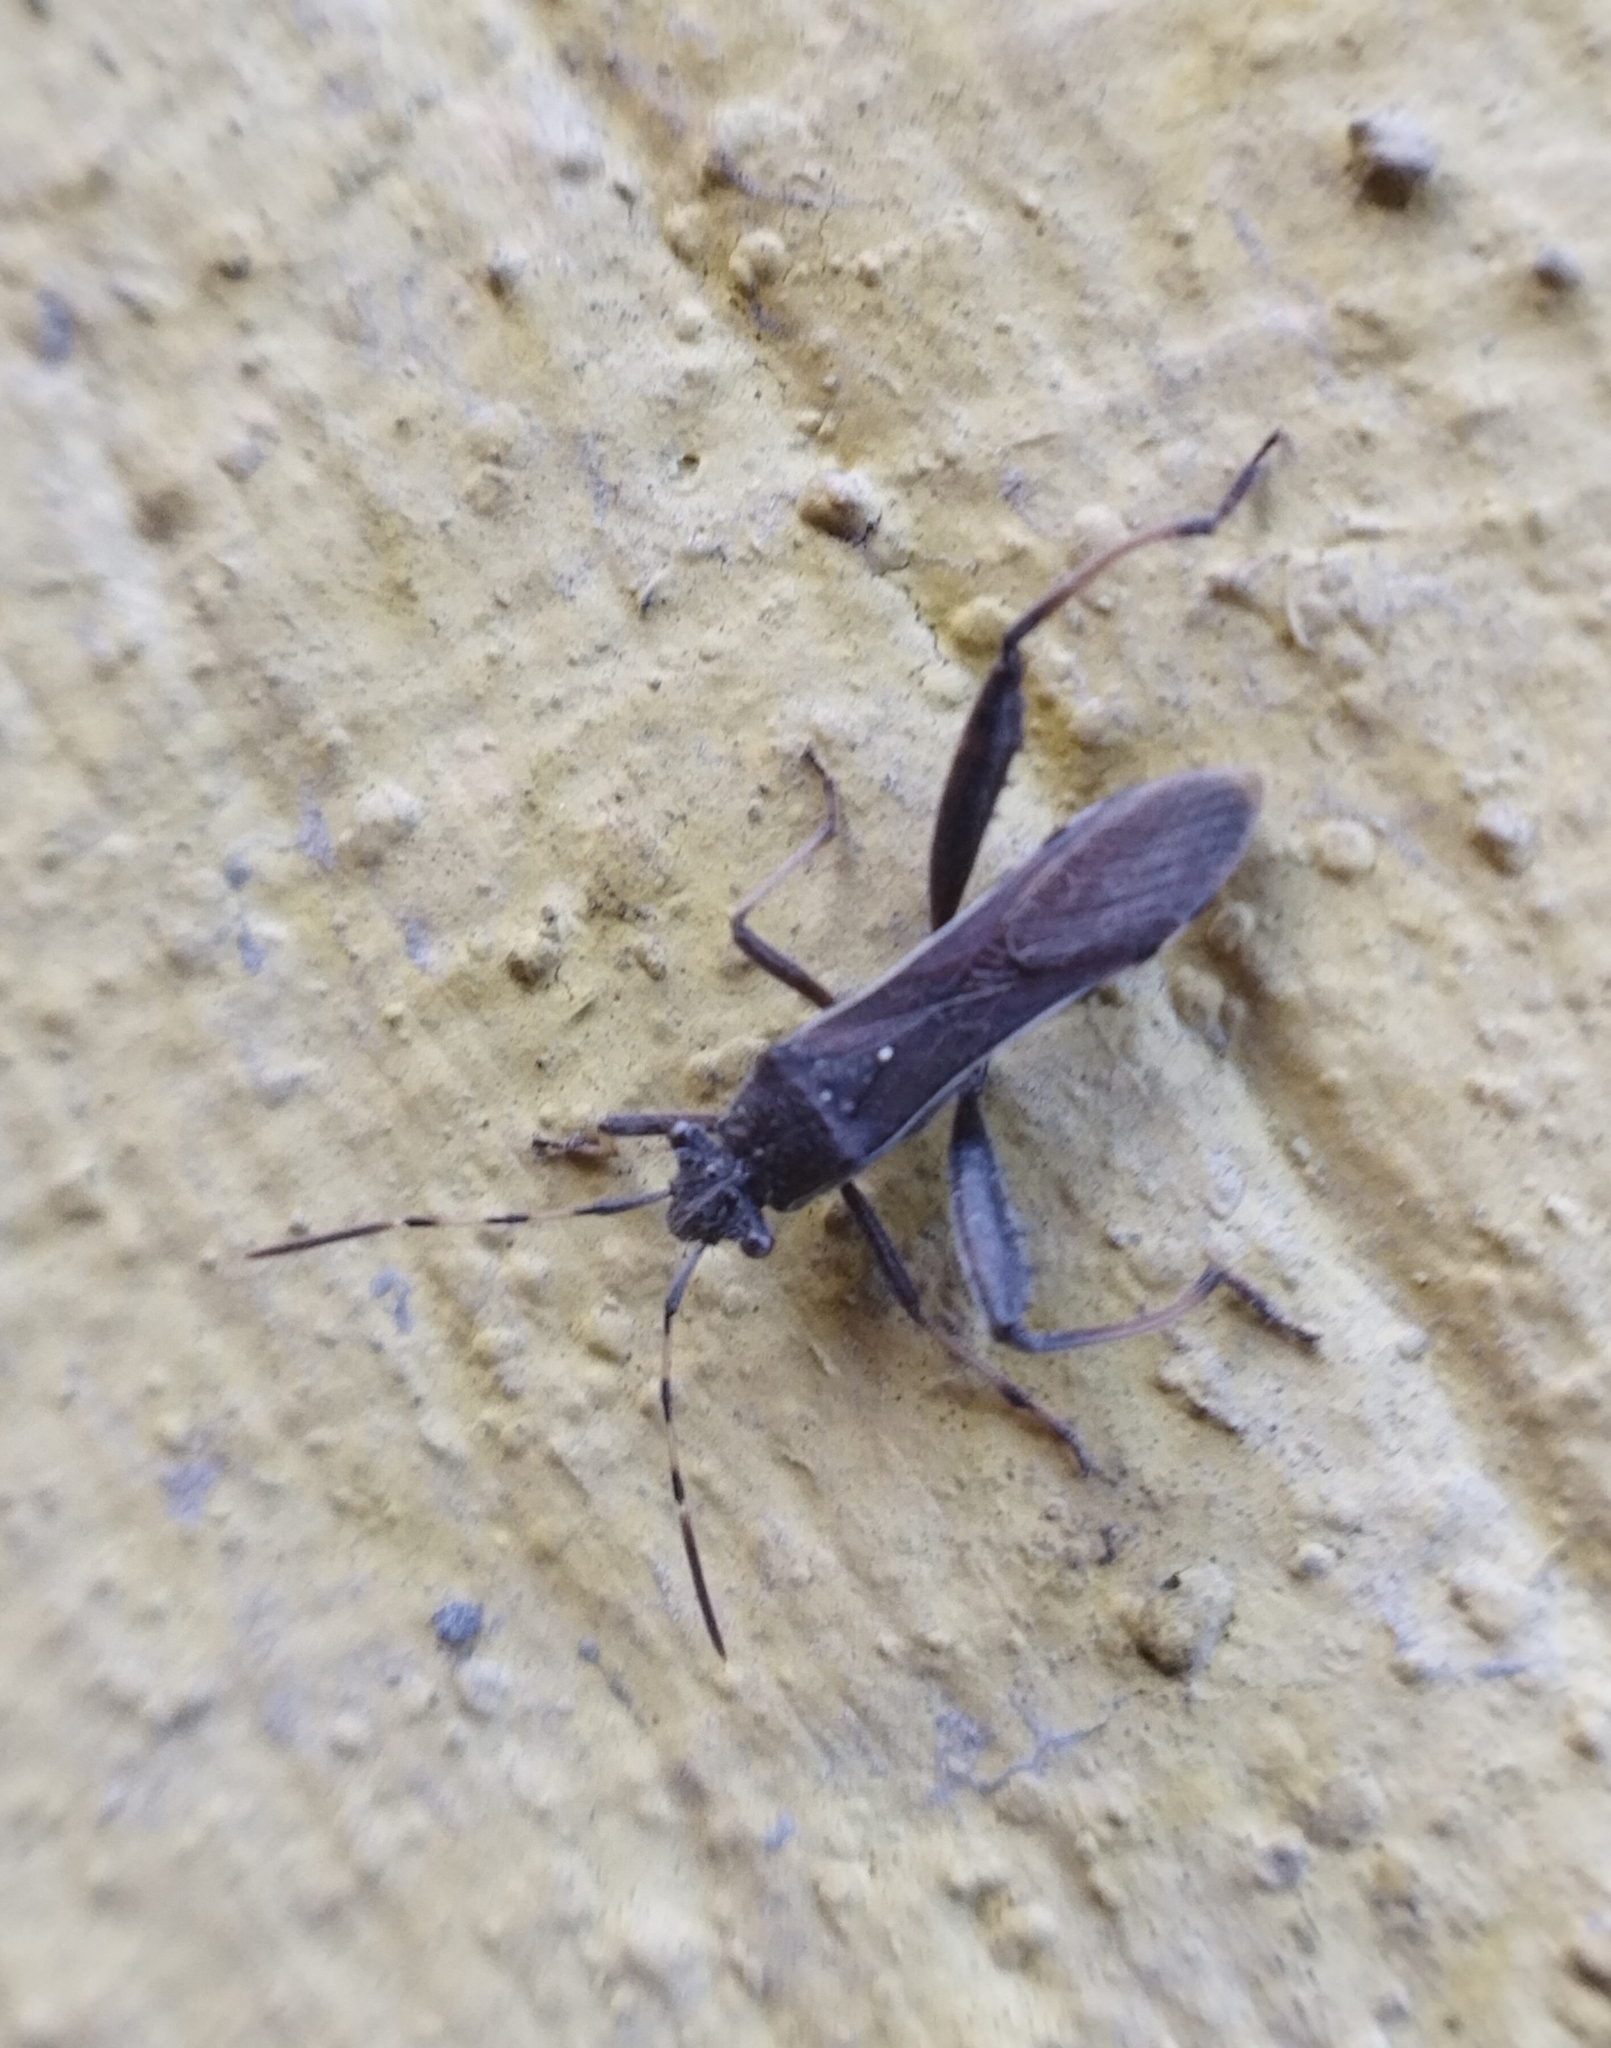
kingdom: Animalia
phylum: Arthropoda
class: Insecta
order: Hemiptera
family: Alydidae
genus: Camptopus
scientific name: Camptopus lateralis
